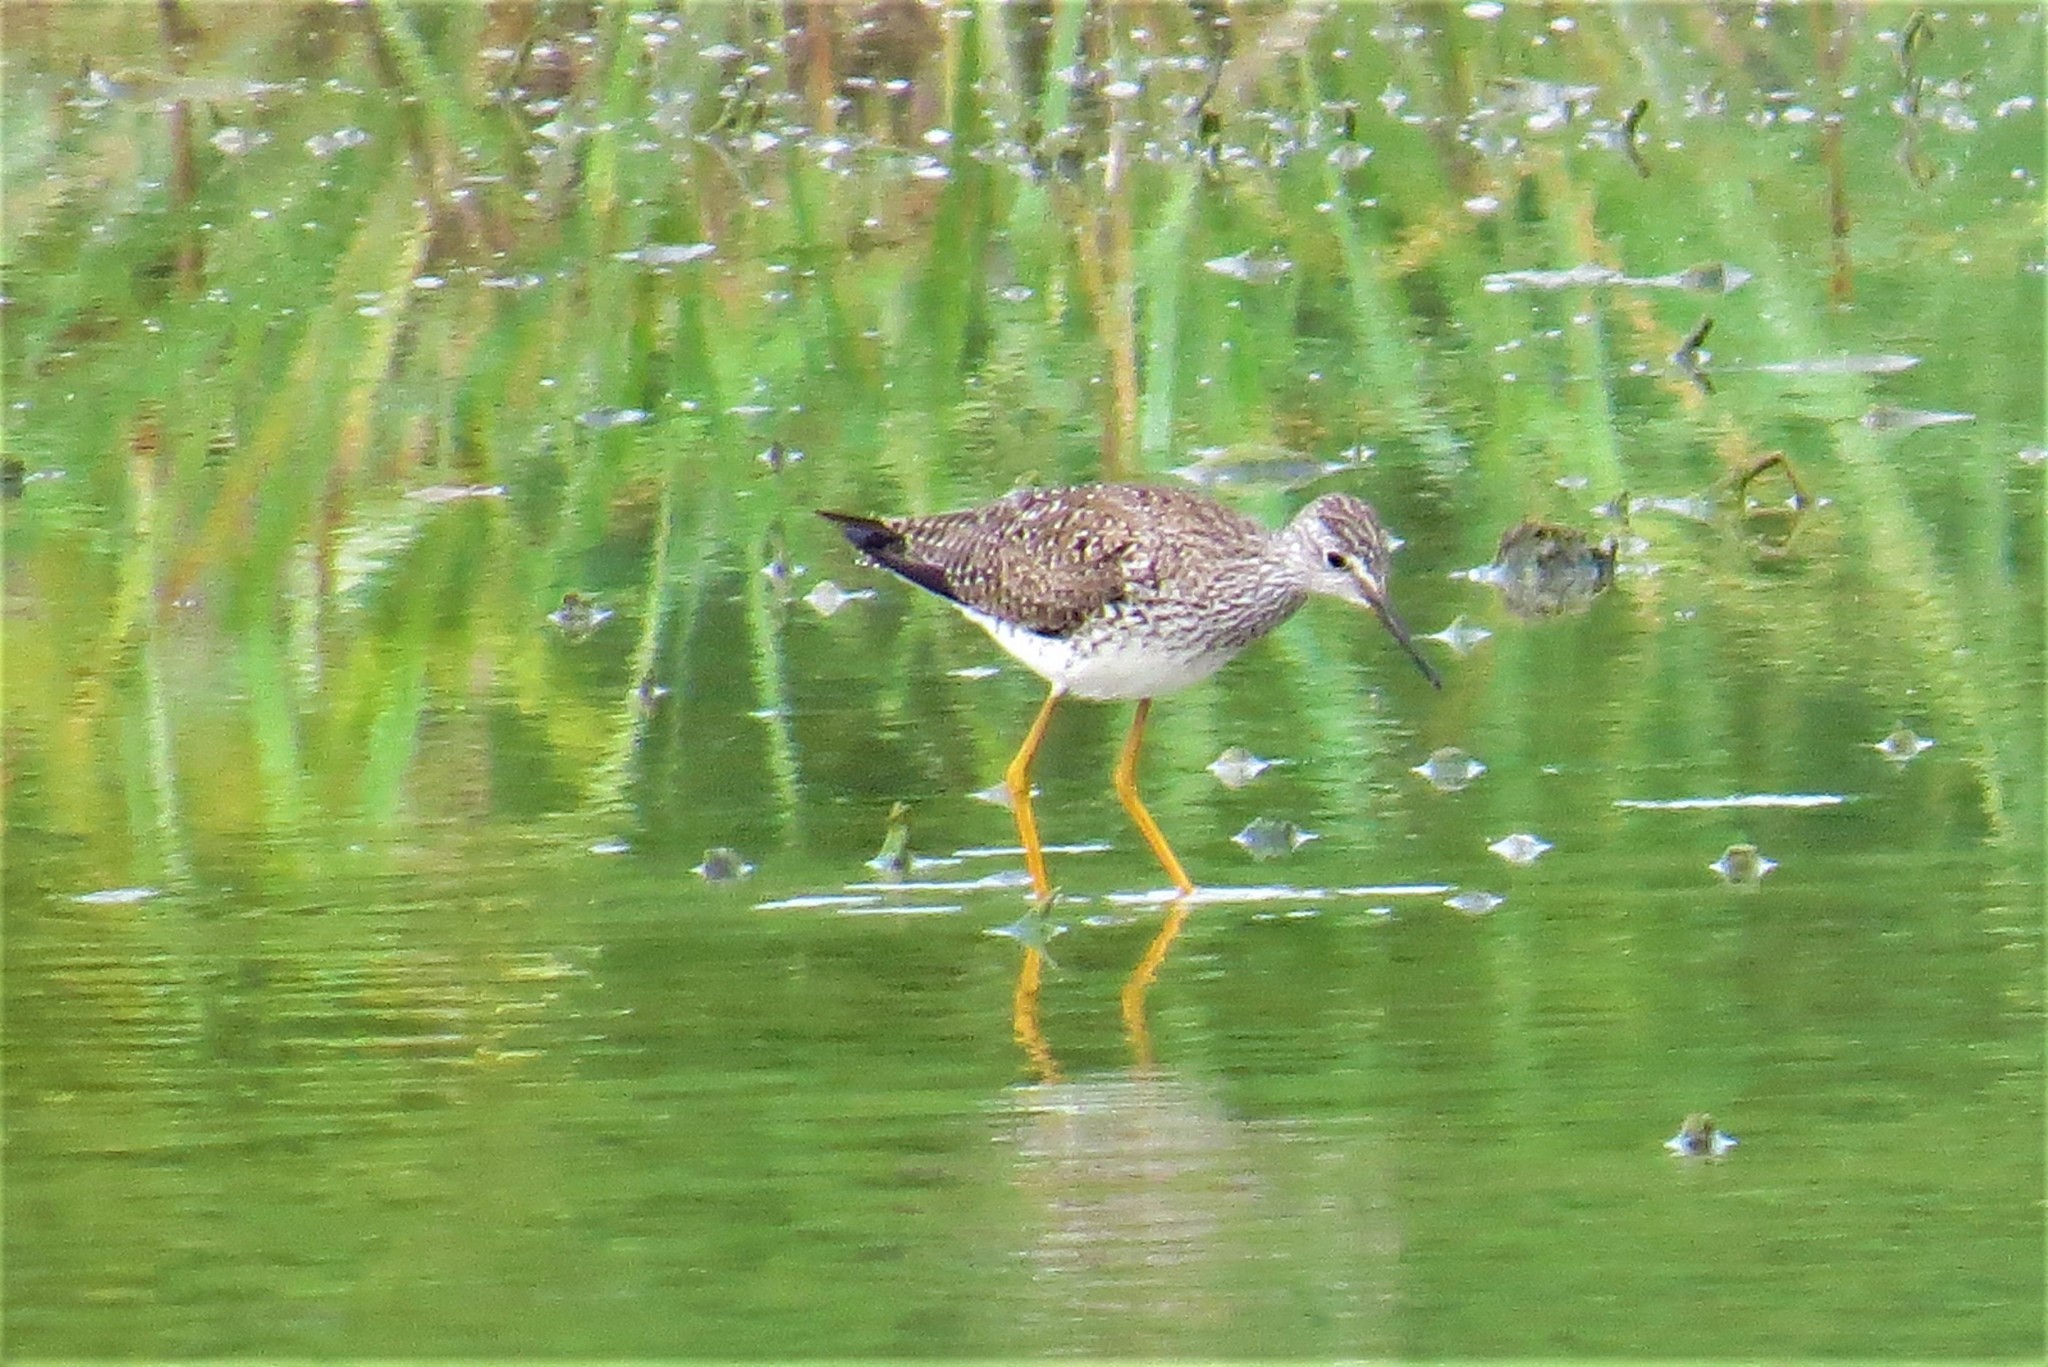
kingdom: Animalia
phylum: Chordata
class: Aves
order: Charadriiformes
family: Scolopacidae
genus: Tringa
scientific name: Tringa flavipes
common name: Lesser yellowlegs
